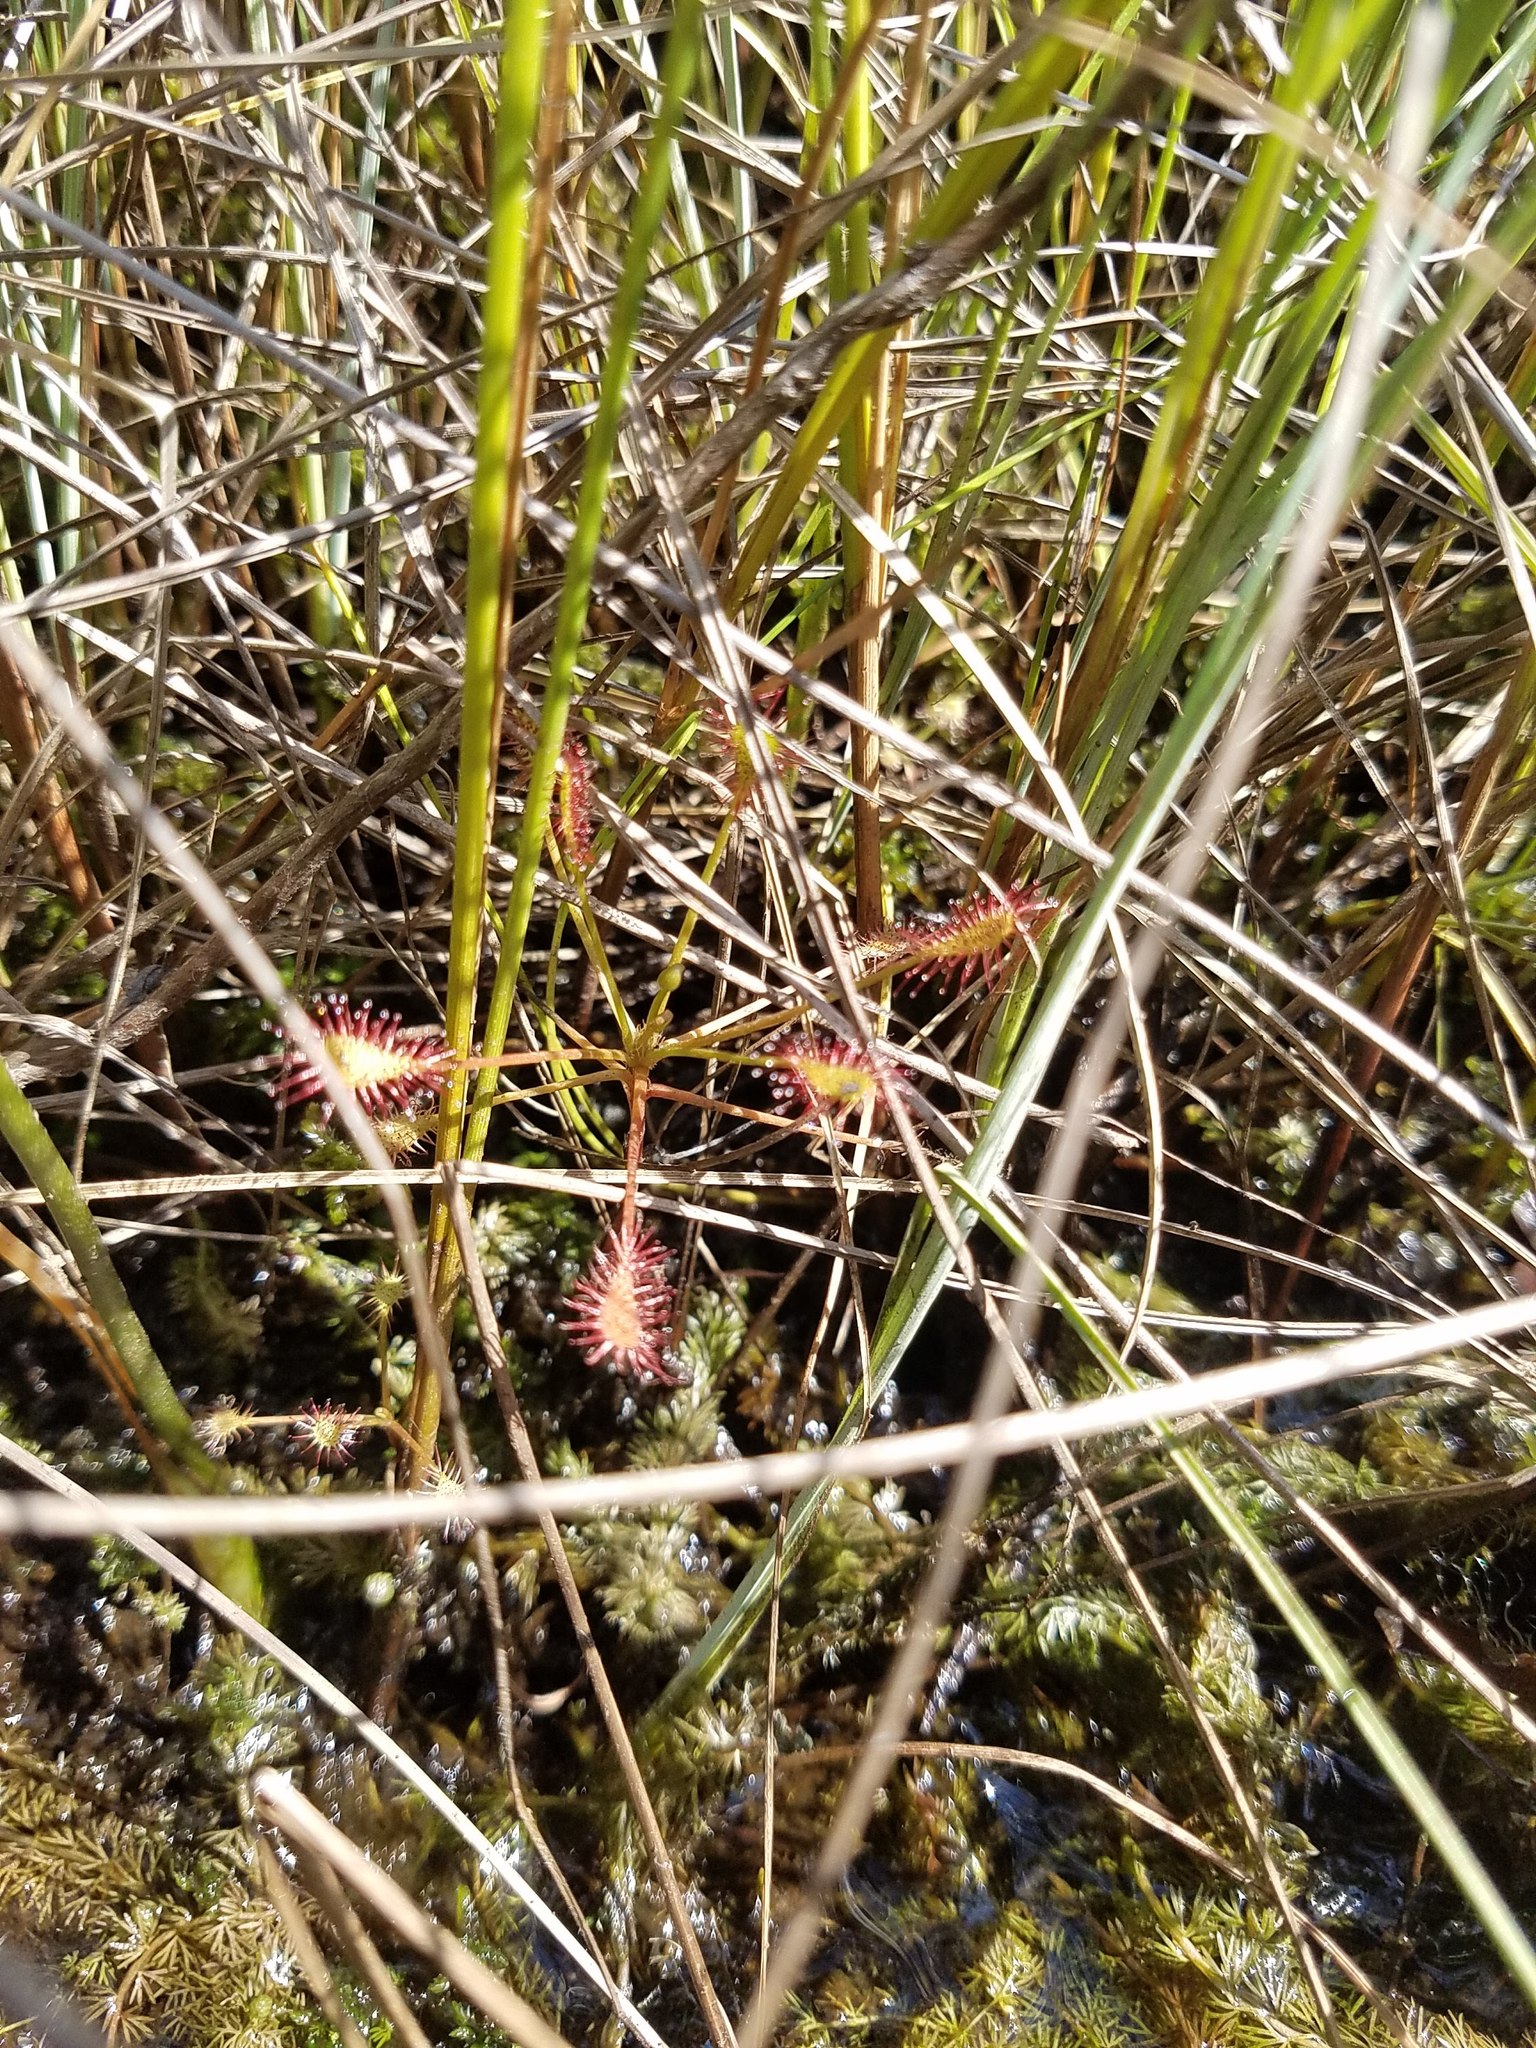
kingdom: Plantae
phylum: Tracheophyta
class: Magnoliopsida
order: Caryophyllales
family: Droseraceae
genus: Drosera
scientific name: Drosera intermedia
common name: Oblong-leaved sundew
